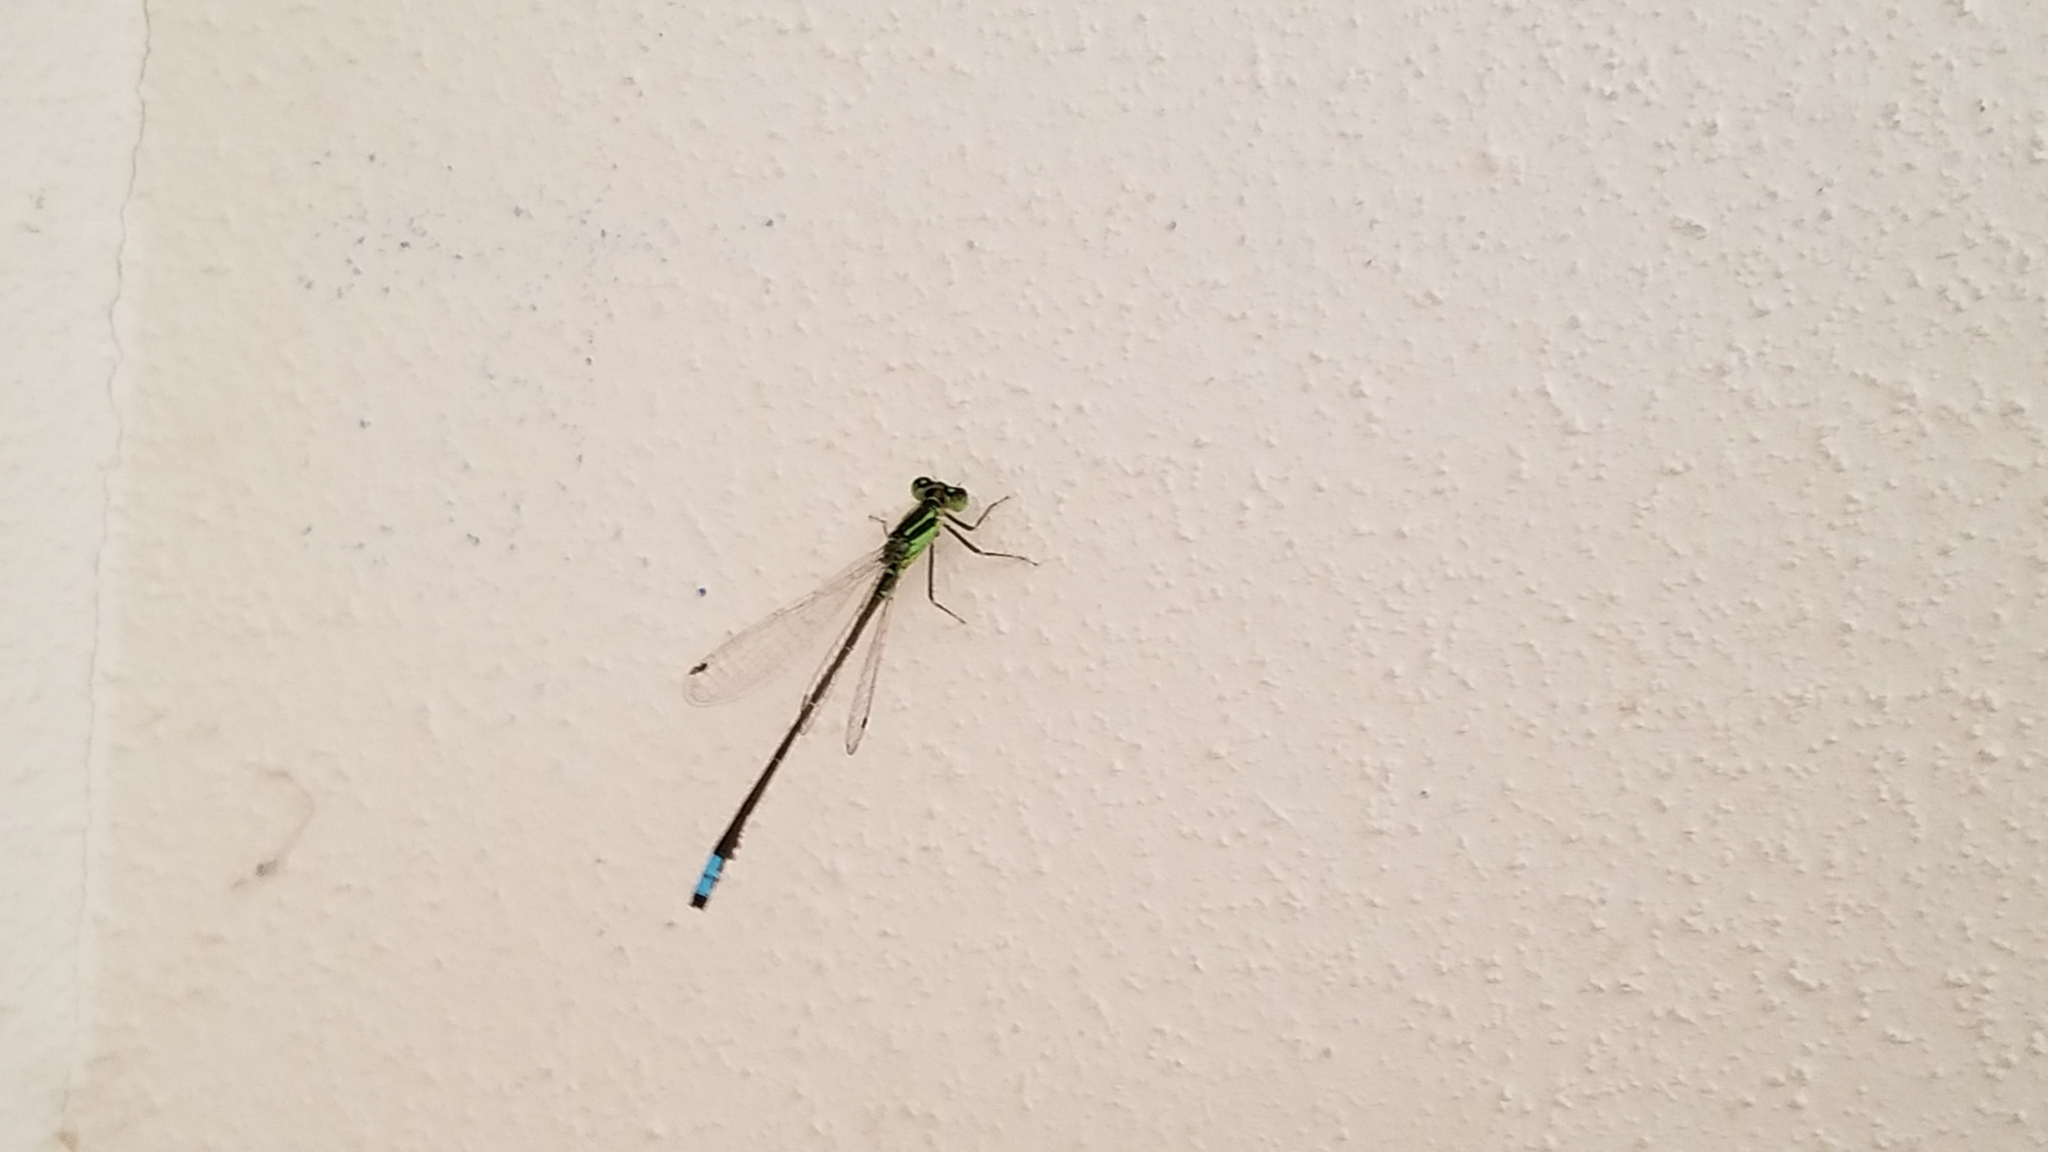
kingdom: Animalia
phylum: Arthropoda
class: Insecta
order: Odonata
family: Coenagrionidae
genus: Ischnura
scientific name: Ischnura verticalis
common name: Eastern forktail
